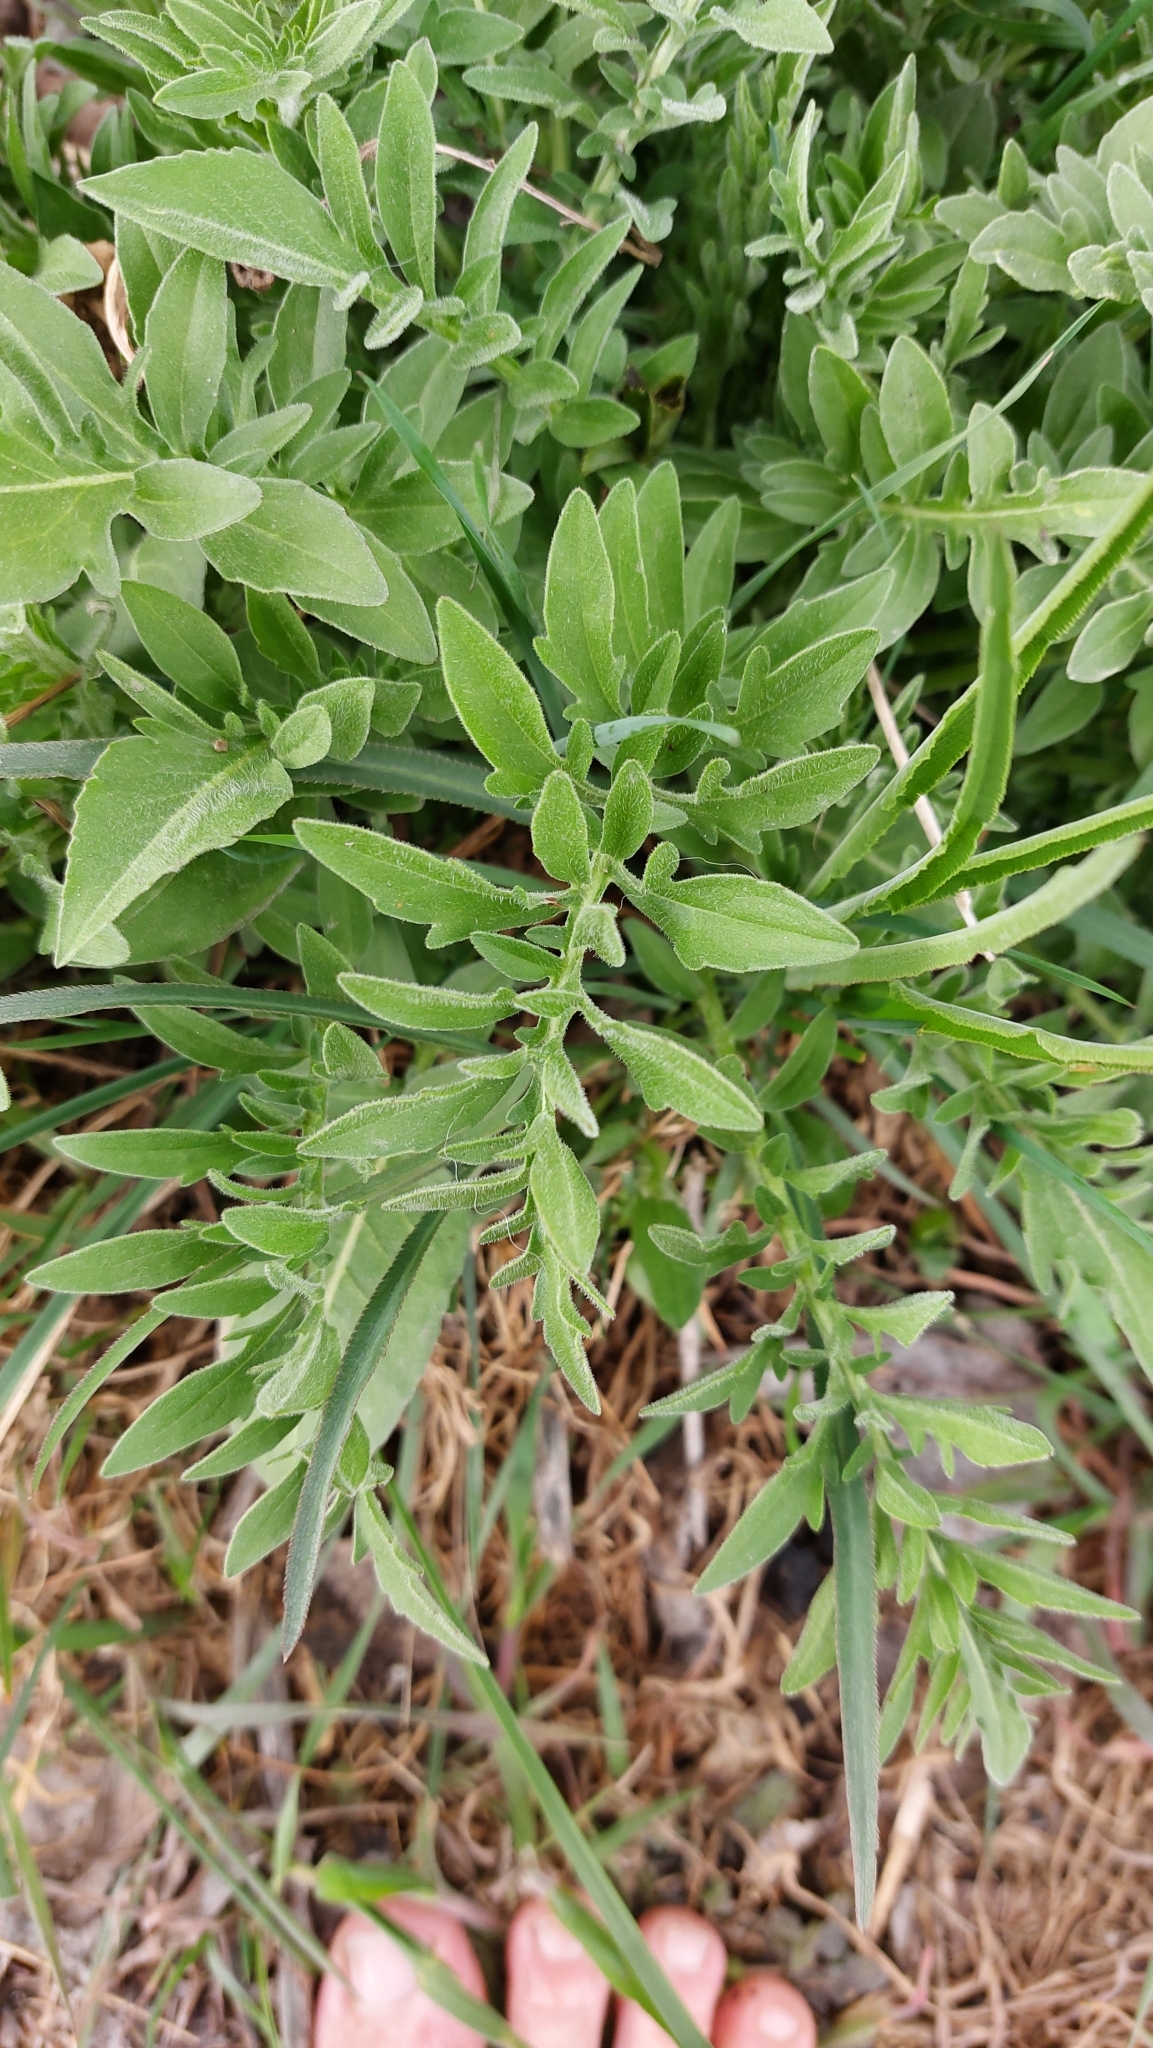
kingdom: Plantae
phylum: Tracheophyta
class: Magnoliopsida
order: Asterales
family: Asteraceae
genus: Centaurea
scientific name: Centaurea scabiosa
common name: Greater knapweed
